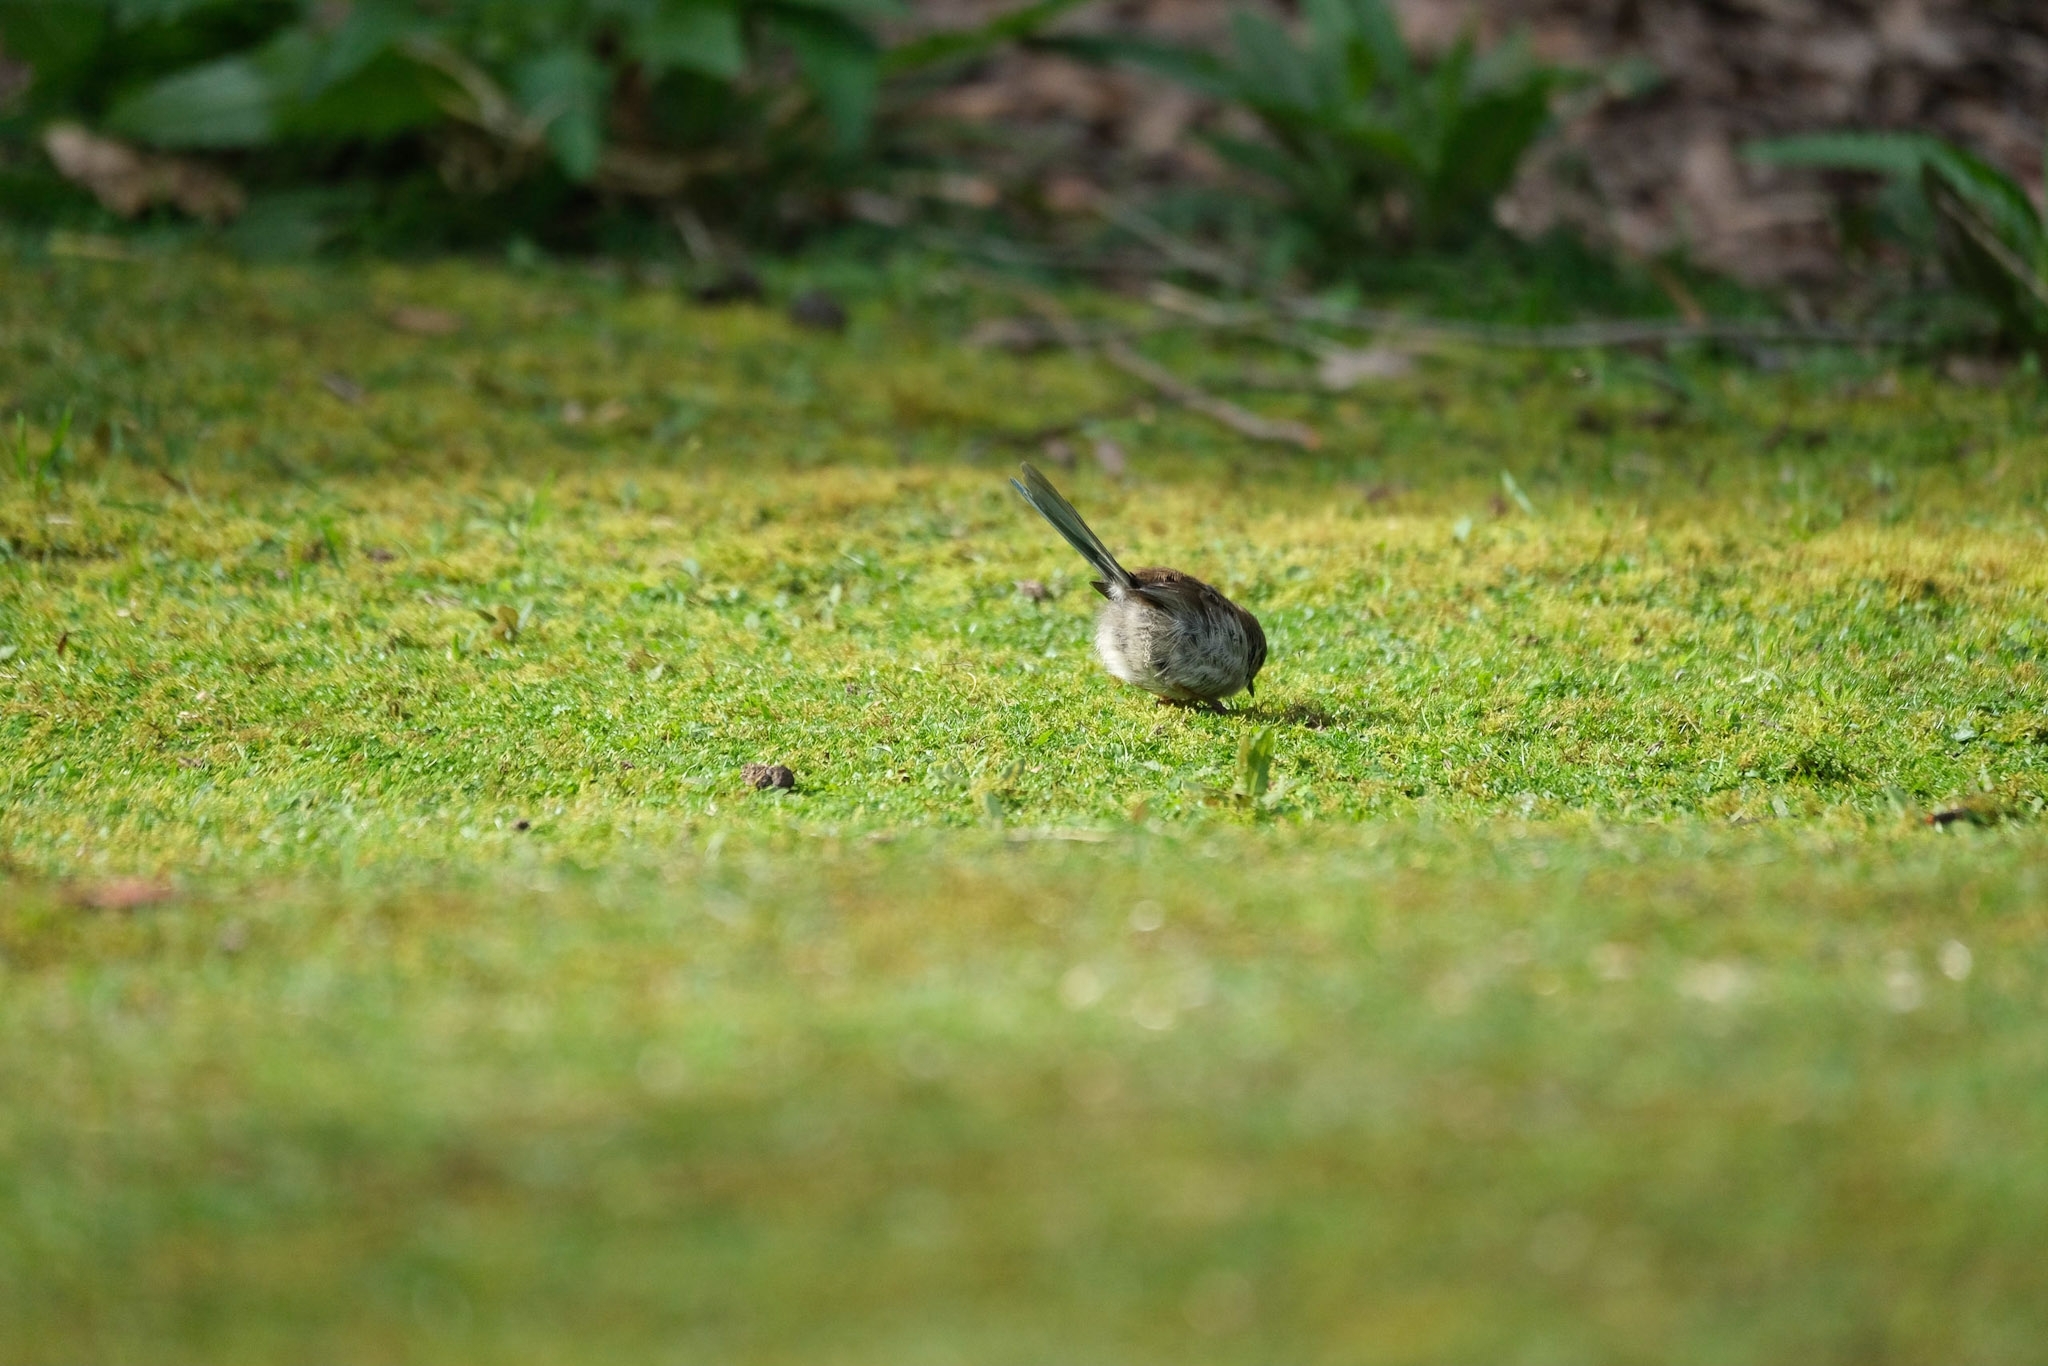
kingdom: Animalia
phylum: Chordata
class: Aves
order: Passeriformes
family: Maluridae
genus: Malurus
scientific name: Malurus cyaneus
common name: Superb fairywren
